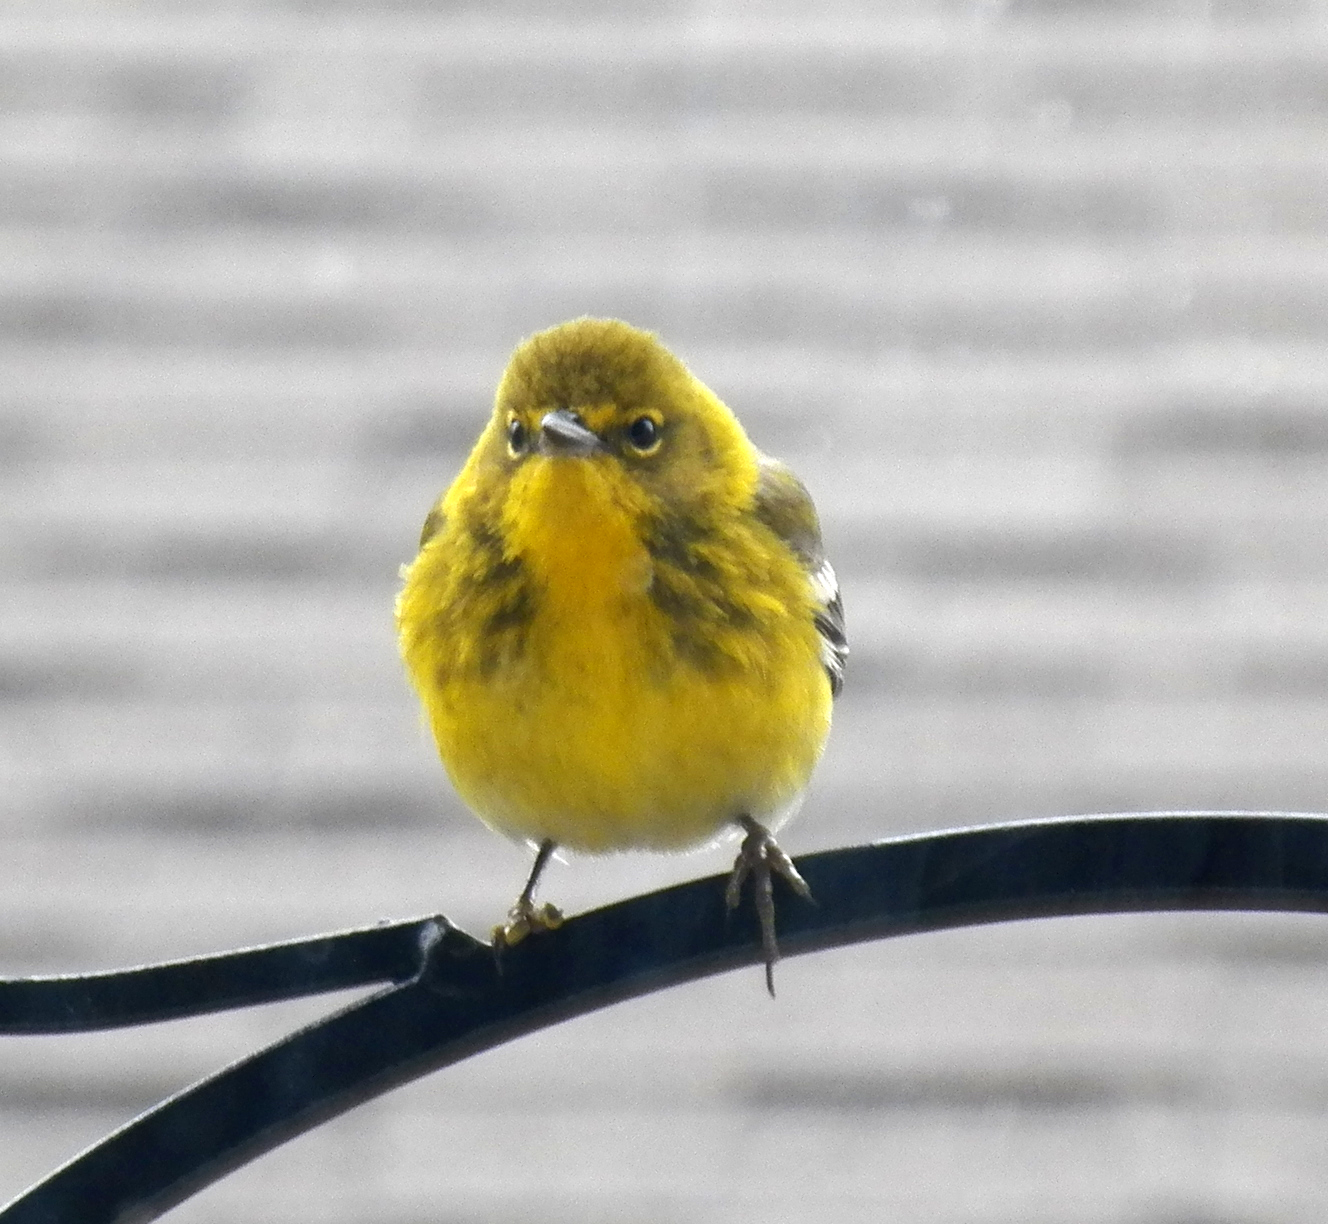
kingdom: Animalia
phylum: Chordata
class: Aves
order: Passeriformes
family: Parulidae
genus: Setophaga
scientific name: Setophaga pinus
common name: Pine warbler
